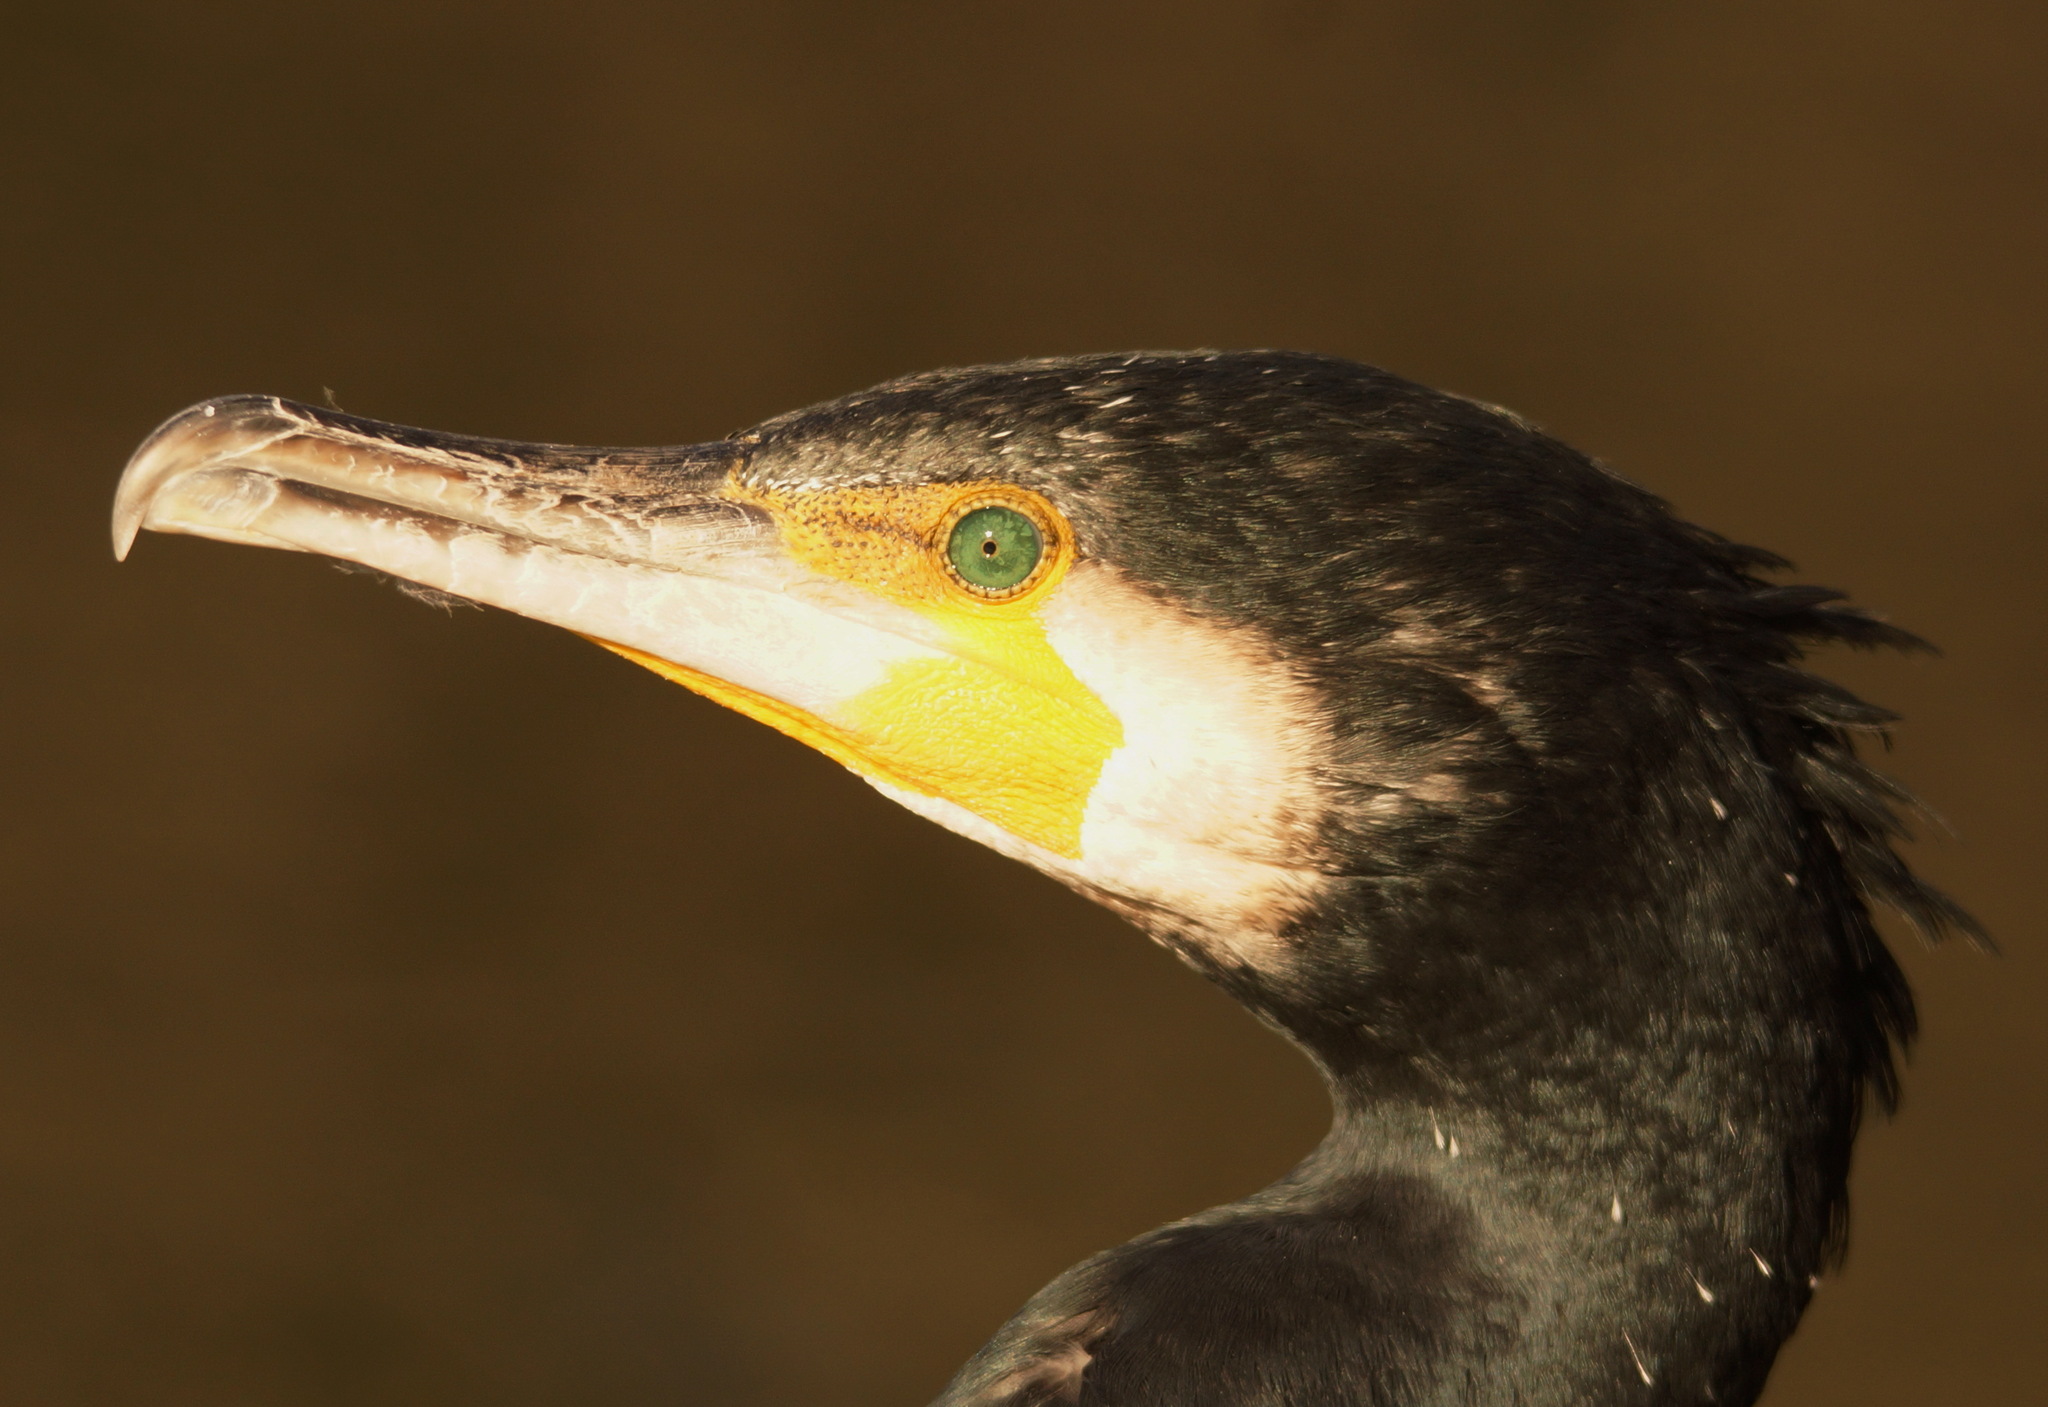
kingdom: Animalia
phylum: Chordata
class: Aves
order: Suliformes
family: Phalacrocoracidae
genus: Phalacrocorax
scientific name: Phalacrocorax carbo
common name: Great cormorant
